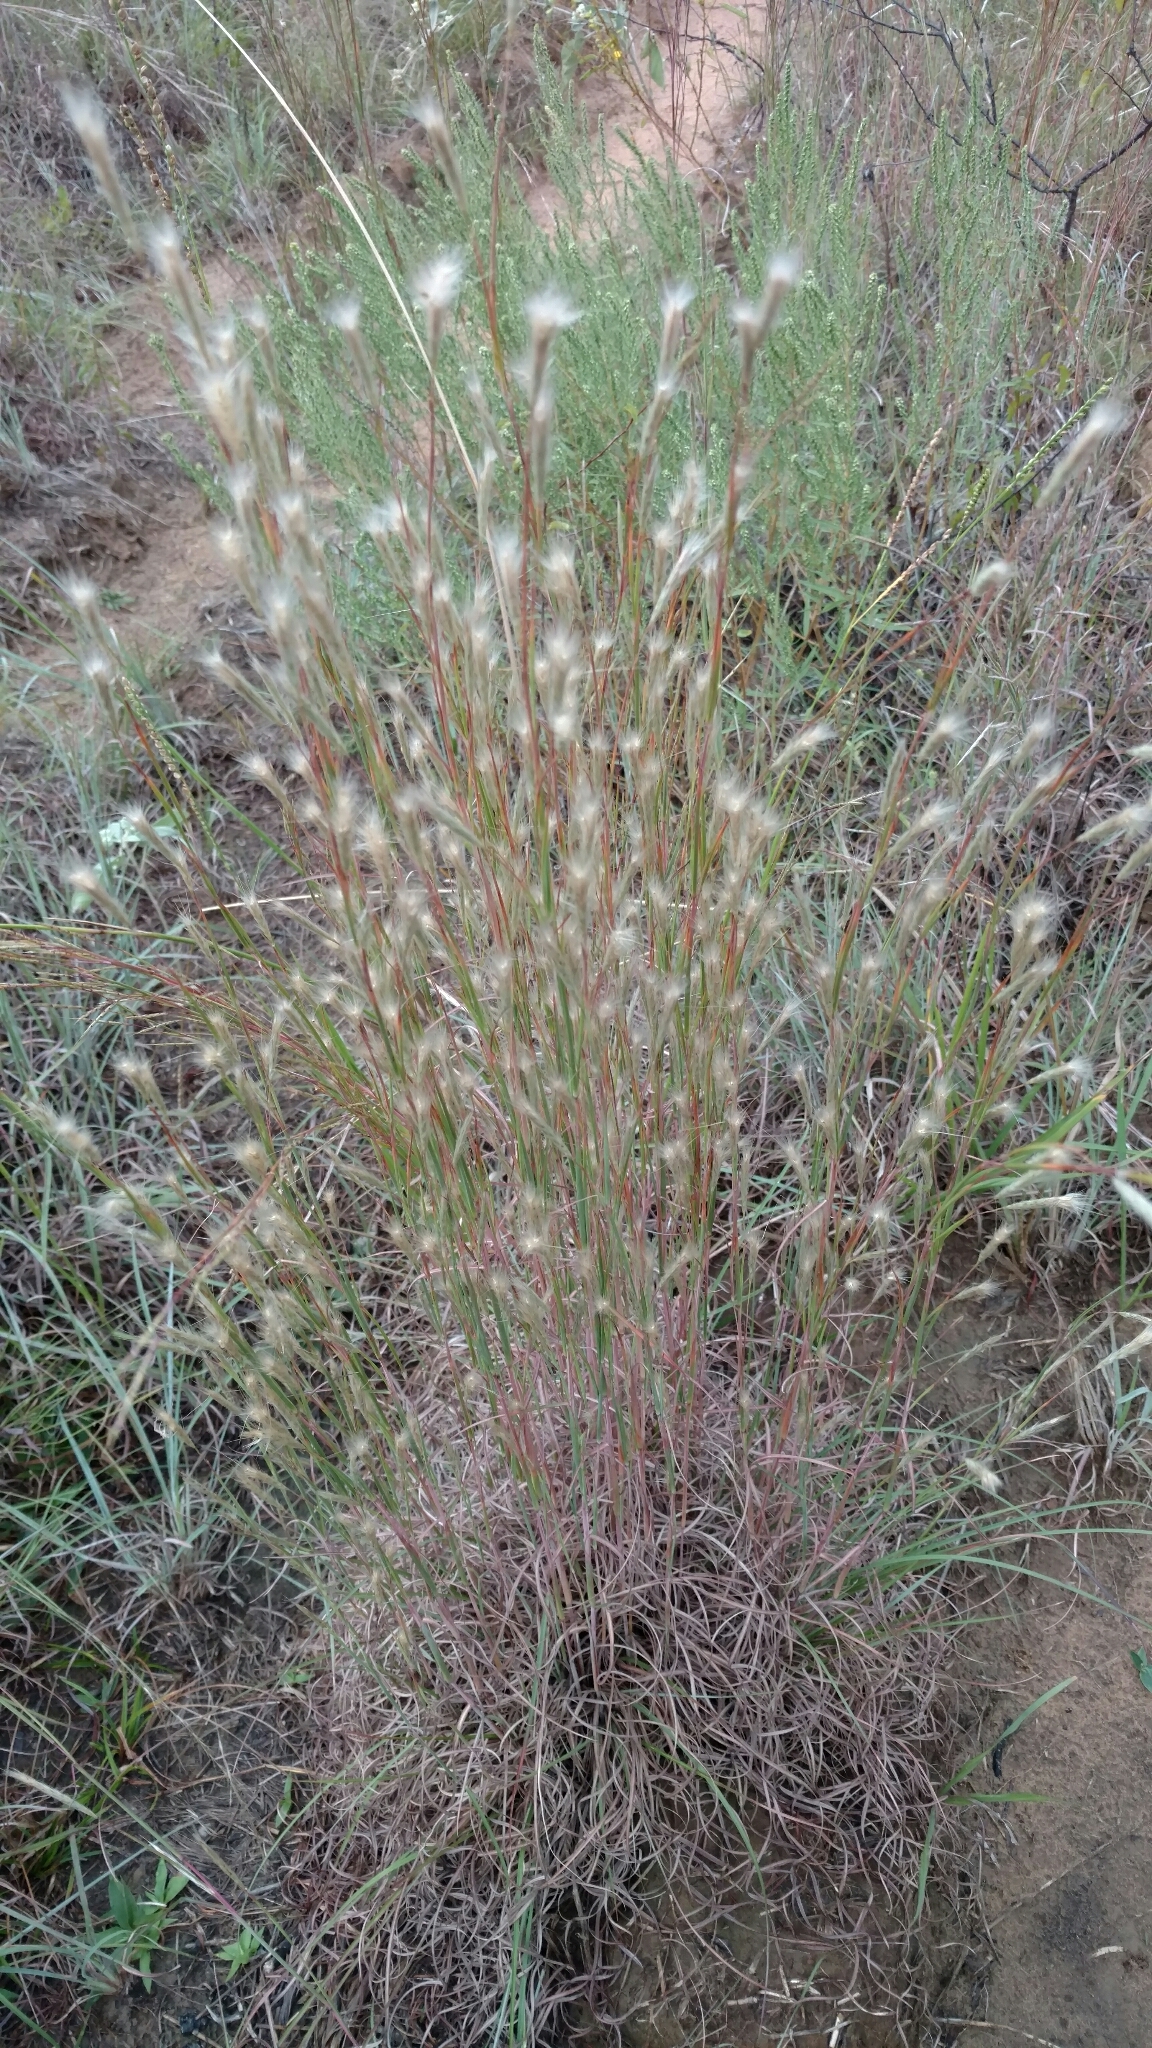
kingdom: Plantae
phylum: Tracheophyta
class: Liliopsida
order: Poales
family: Poaceae
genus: Andropogon
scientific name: Andropogon ternarius
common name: Split bluestem
